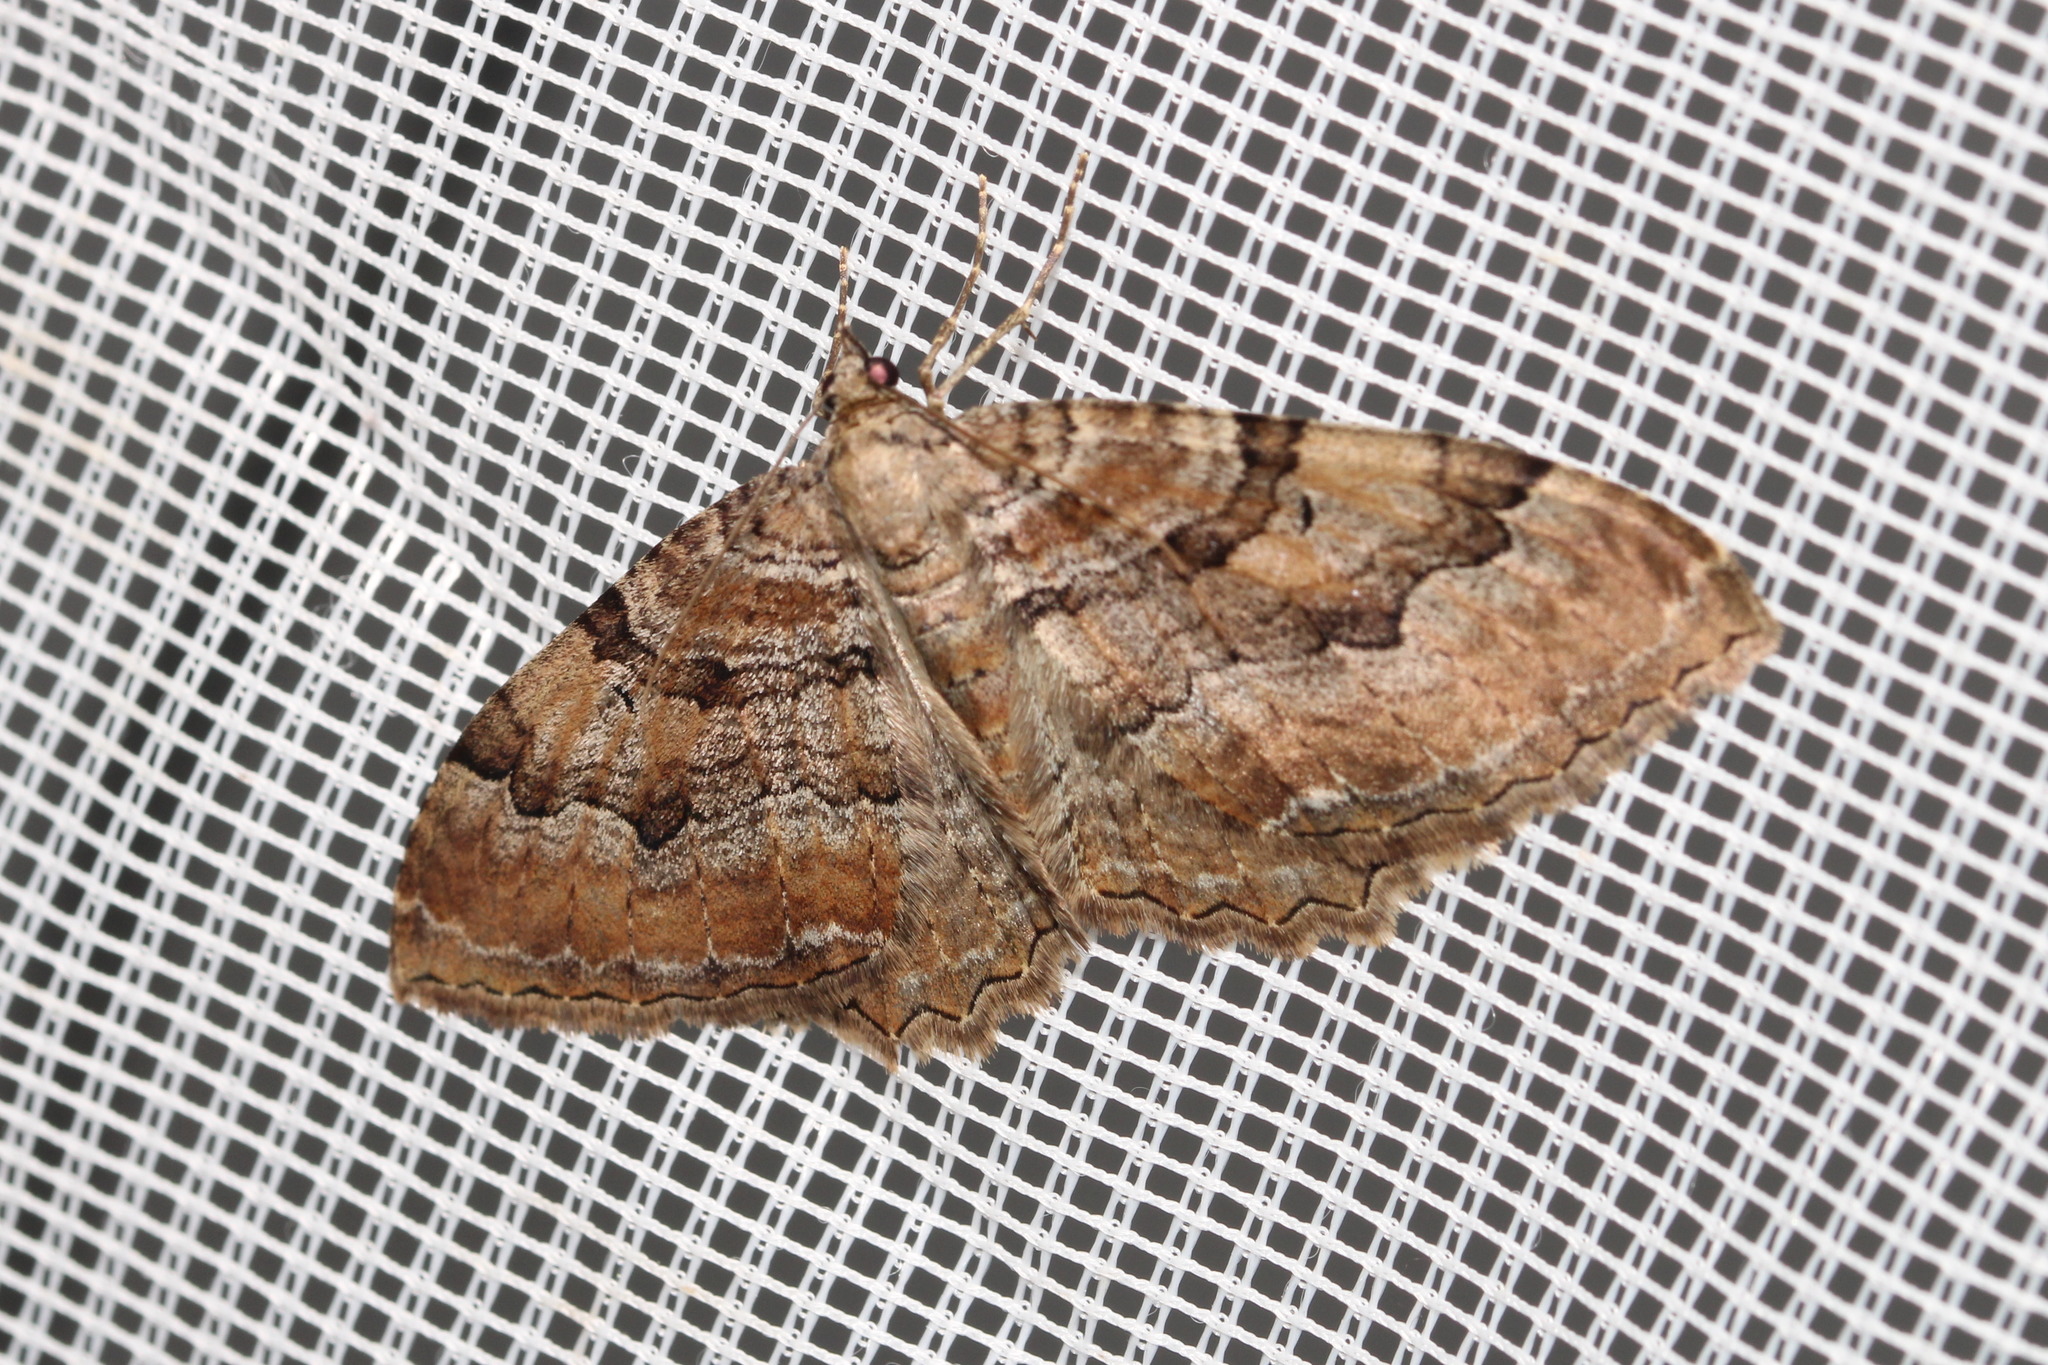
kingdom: Animalia
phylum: Arthropoda
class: Insecta
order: Lepidoptera
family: Geometridae
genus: Rheumaptera
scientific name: Rheumaptera Hydria cervinalis
